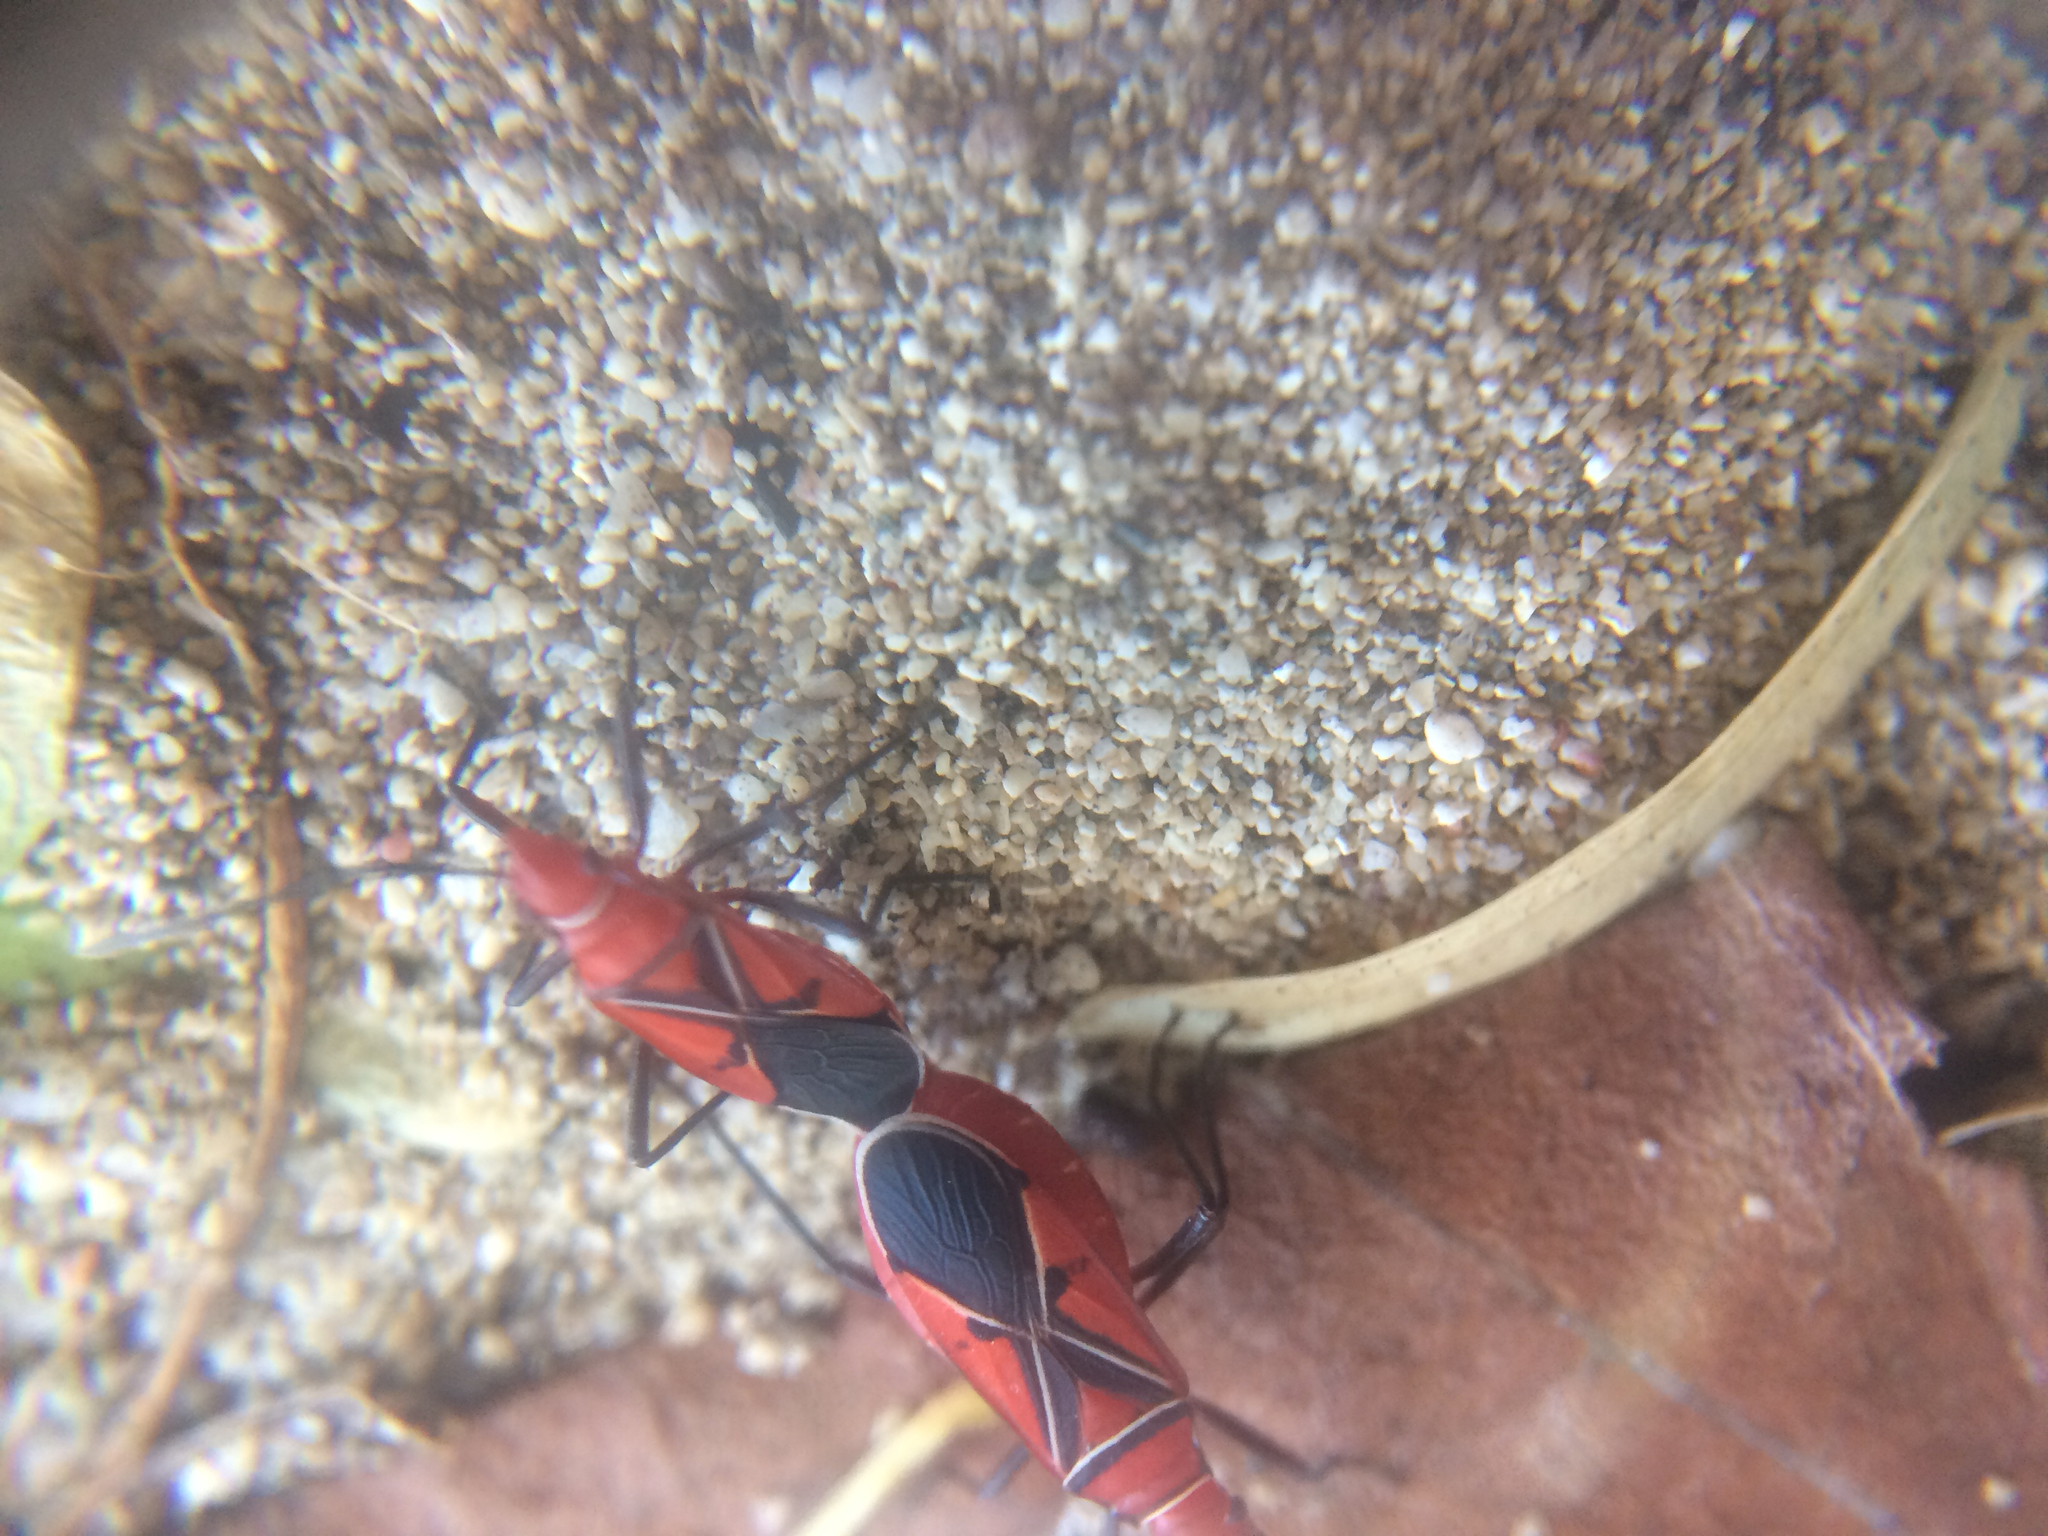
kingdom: Animalia
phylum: Arthropoda
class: Insecta
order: Hemiptera
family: Pyrrhocoridae
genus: Dysdercus
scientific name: Dysdercus andreae
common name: St. andrew's cotton stainer
